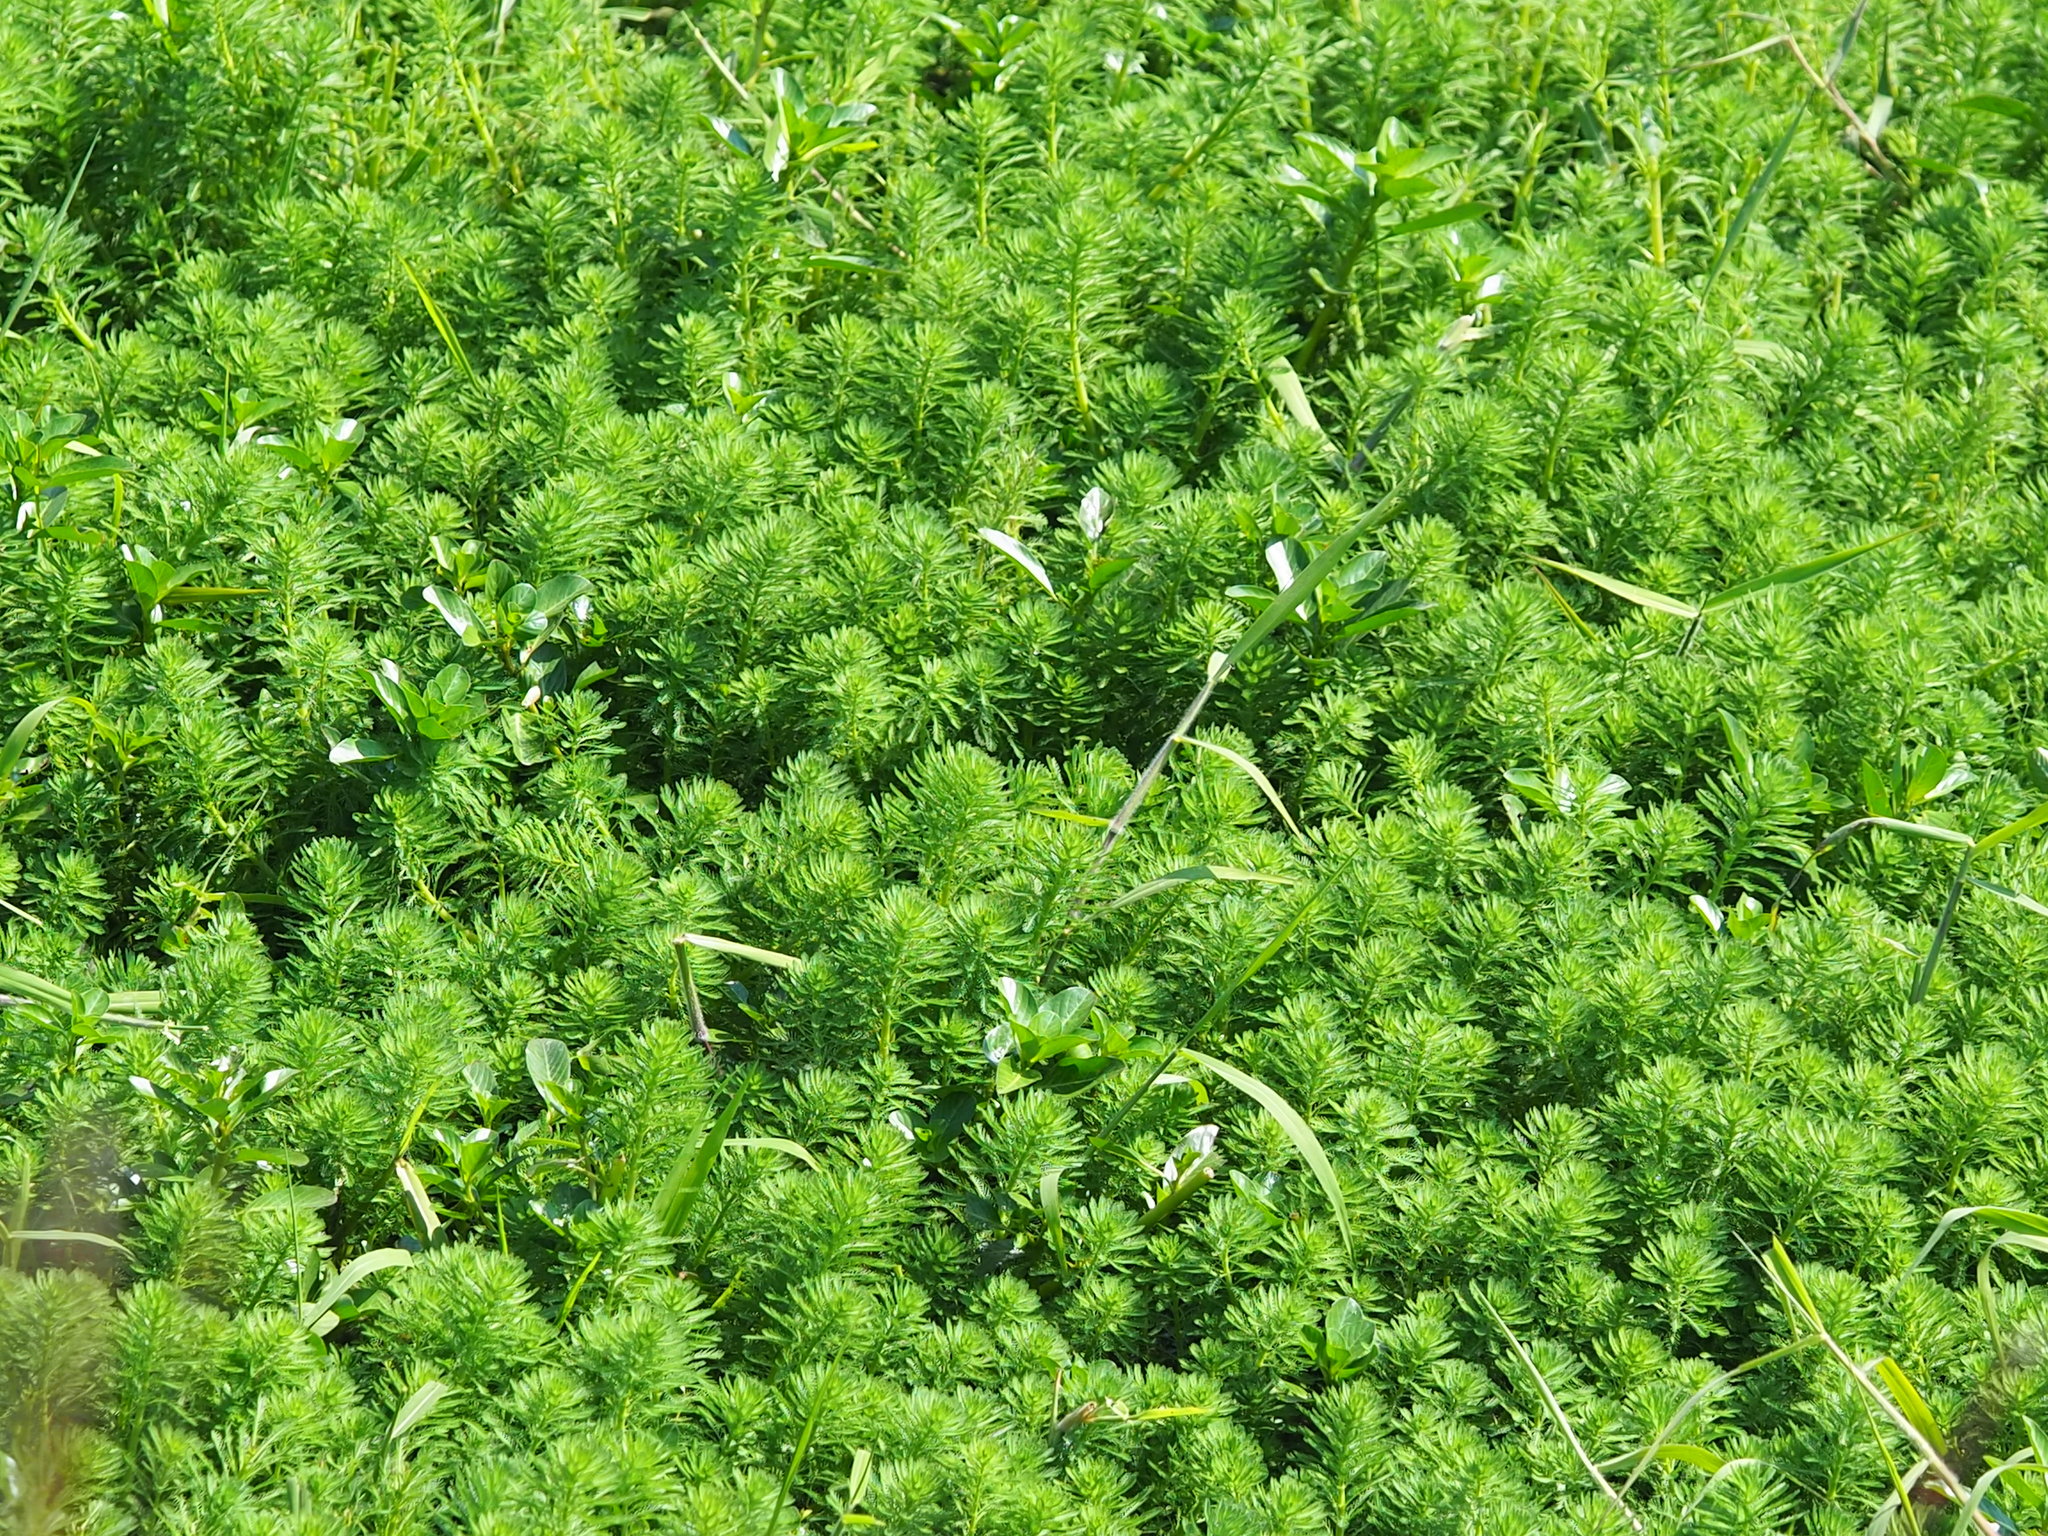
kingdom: Plantae
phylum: Tracheophyta
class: Magnoliopsida
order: Saxifragales
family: Haloragaceae
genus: Myriophyllum
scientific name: Myriophyllum aquaticum
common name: Parrot's feather
